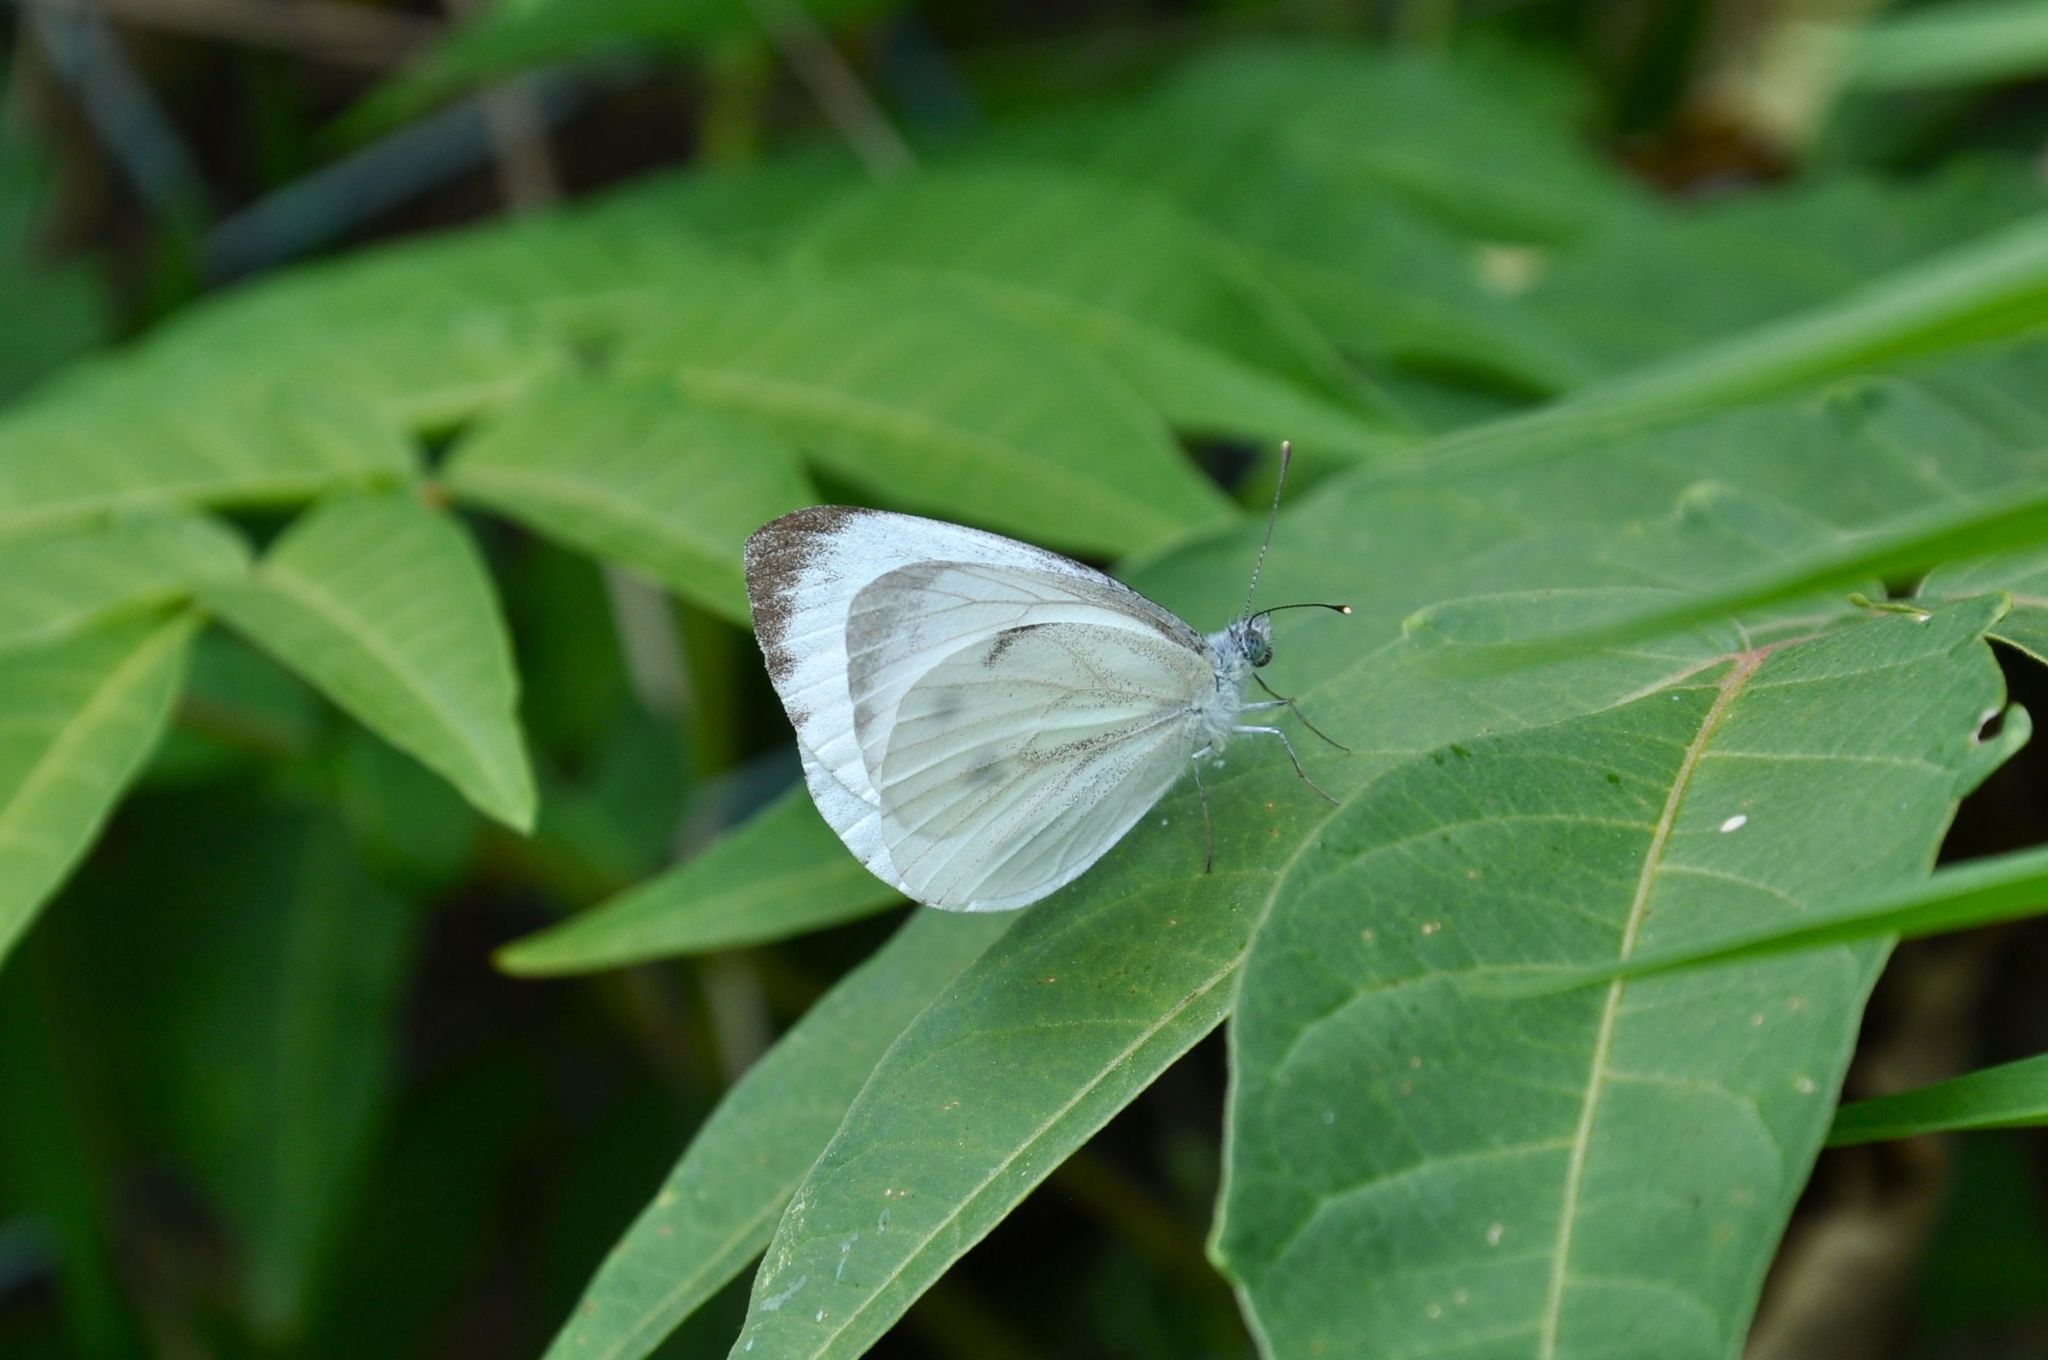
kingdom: Animalia
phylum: Arthropoda
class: Insecta
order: Lepidoptera
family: Pieridae
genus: Pieris
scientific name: Pieris napi
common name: Green-veined white
